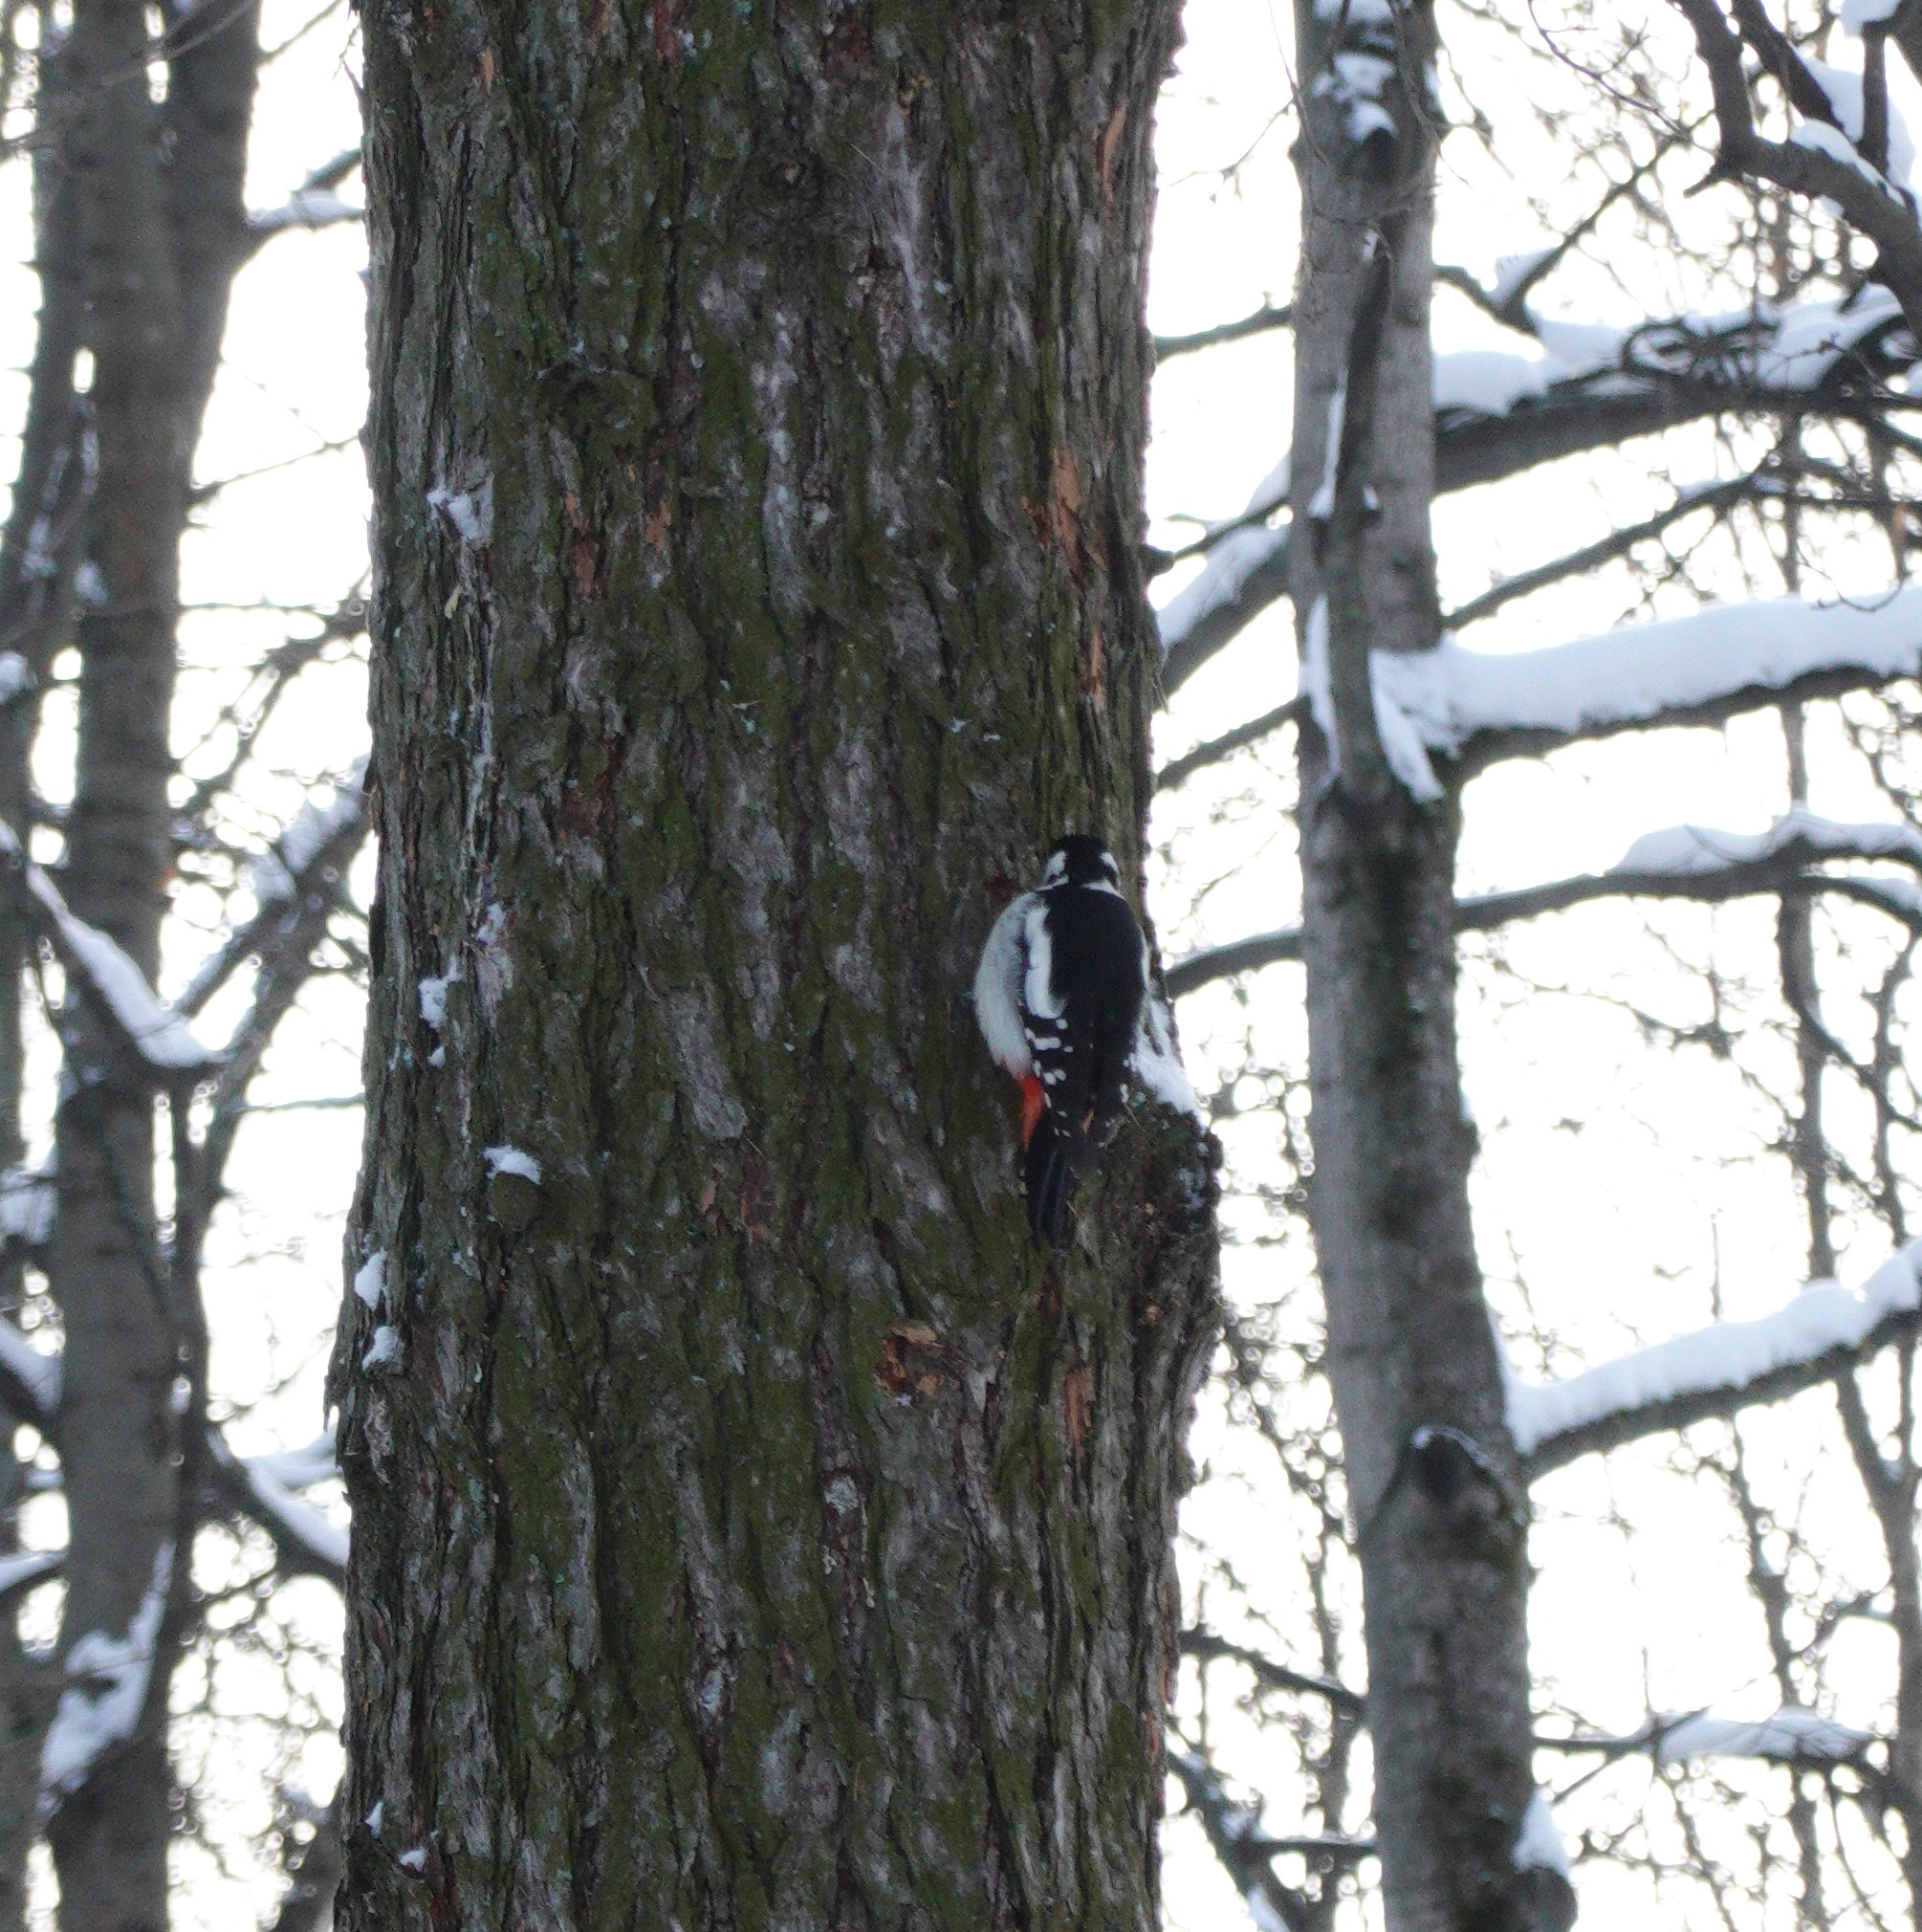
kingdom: Animalia
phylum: Chordata
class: Aves
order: Piciformes
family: Picidae
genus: Dendrocopos
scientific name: Dendrocopos major
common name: Great spotted woodpecker
